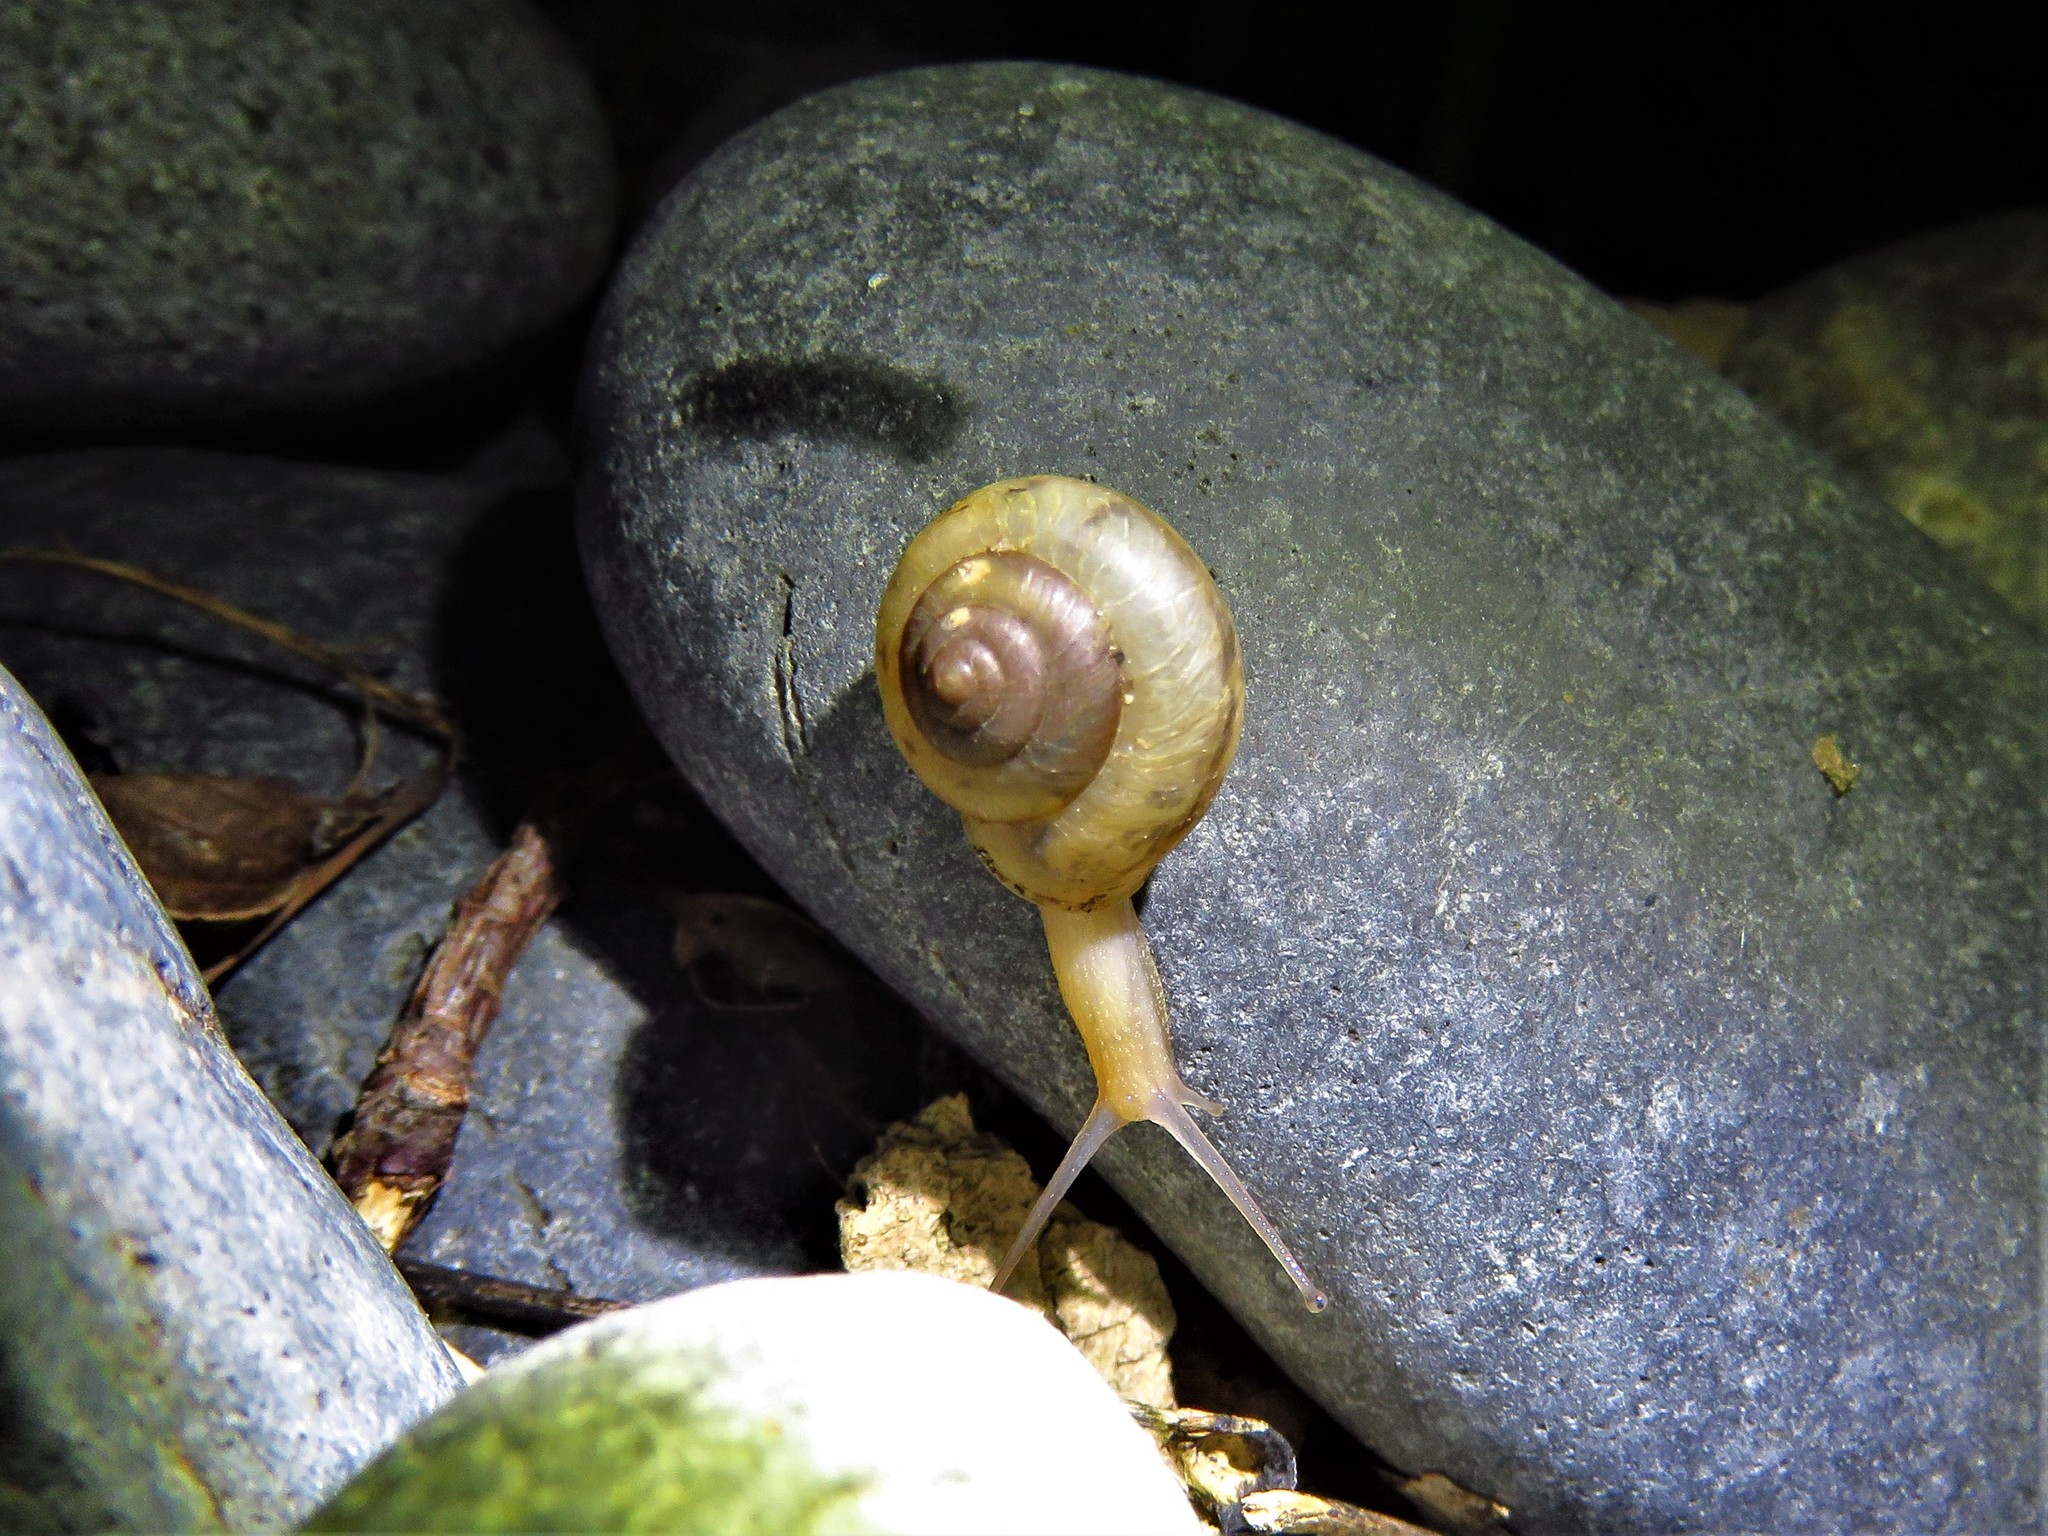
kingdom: Animalia
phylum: Mollusca
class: Gastropoda
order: Stylommatophora
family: Camaenidae
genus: Bradybaena
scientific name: Bradybaena similaris
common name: Asian trampsnail
